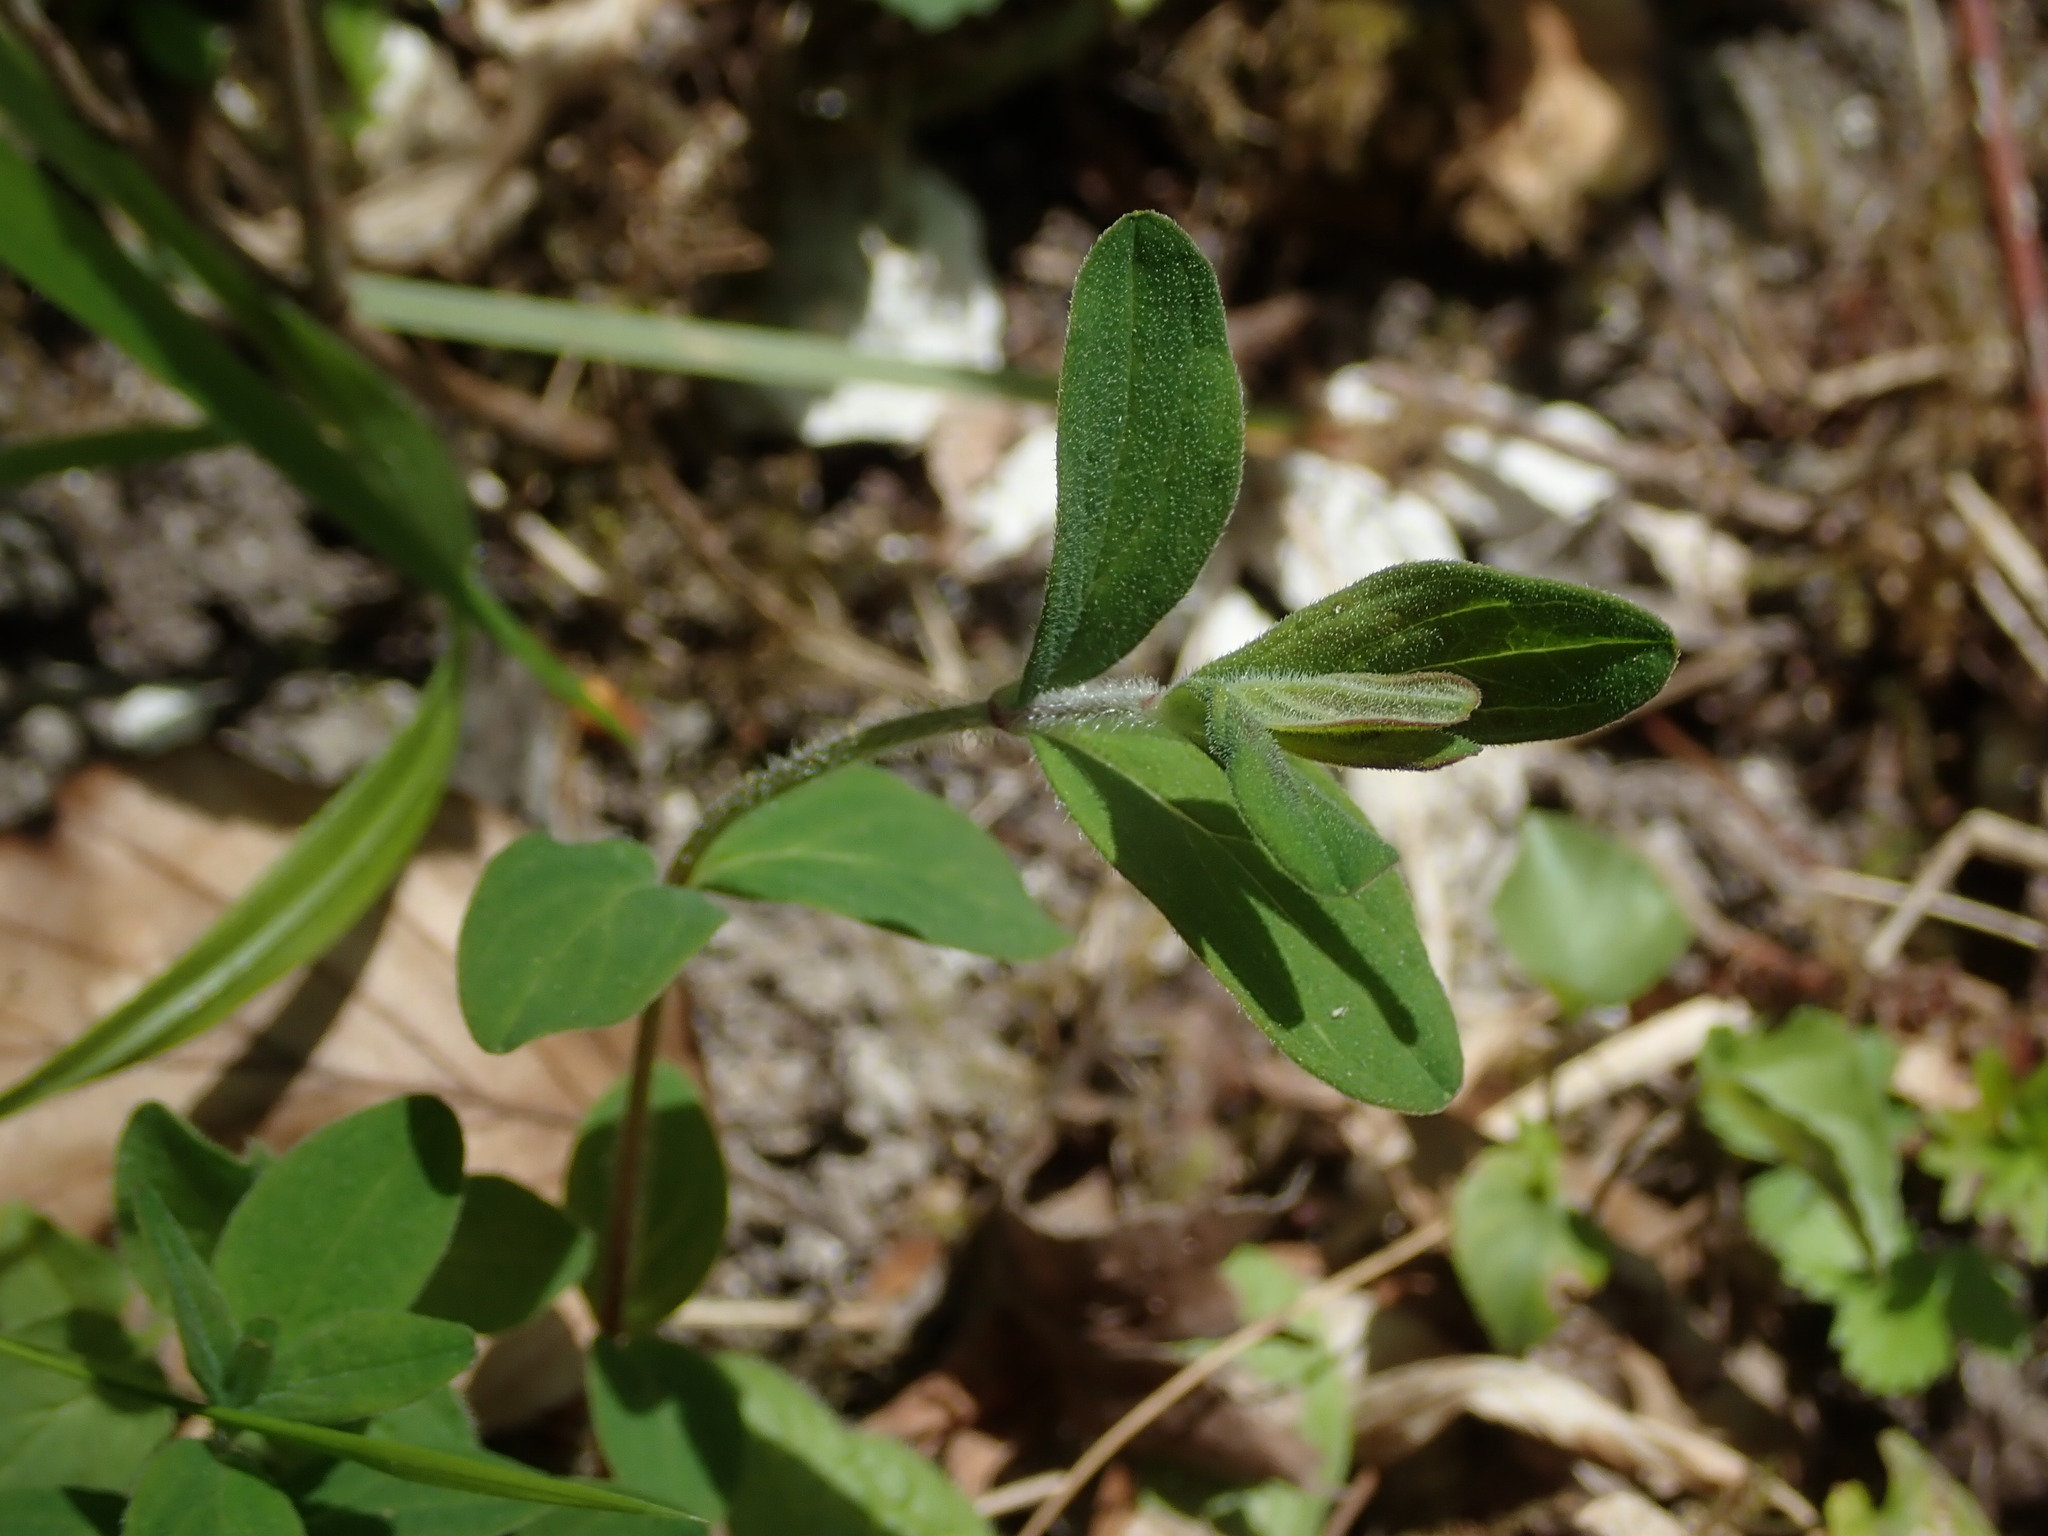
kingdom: Plantae
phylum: Tracheophyta
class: Magnoliopsida
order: Malpighiales
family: Hypericaceae
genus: Hypericum
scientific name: Hypericum hirsutum
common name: Hairy st. john's-wort
